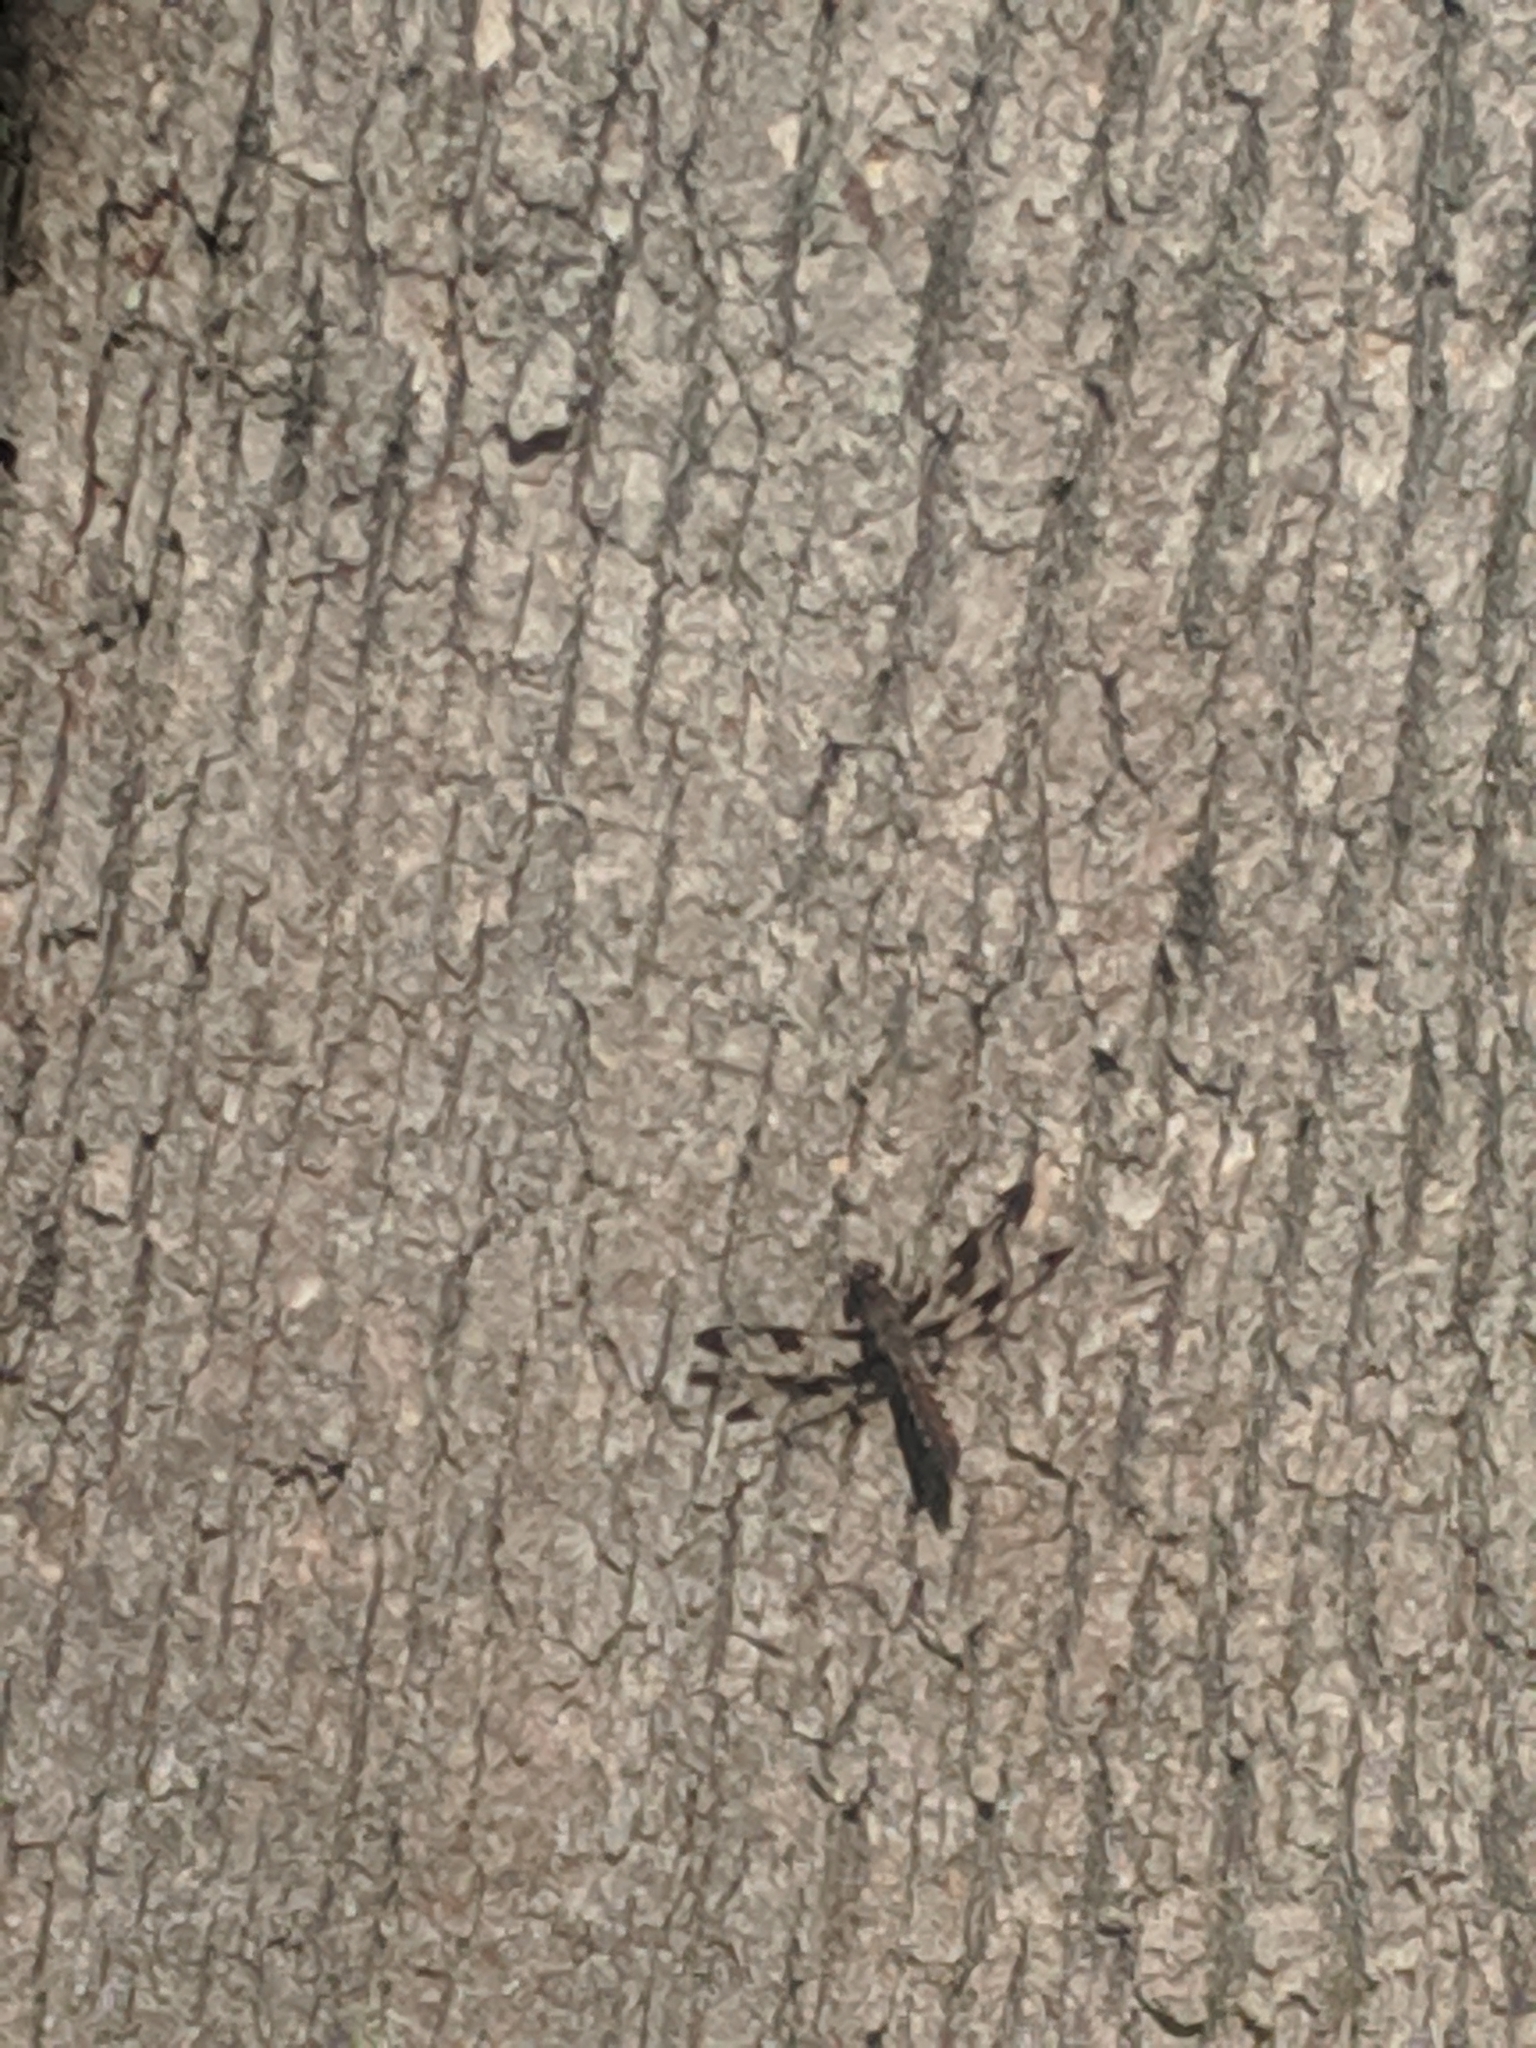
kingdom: Animalia
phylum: Arthropoda
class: Insecta
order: Odonata
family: Libellulidae
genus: Plathemis
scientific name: Plathemis lydia
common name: Common whitetail
